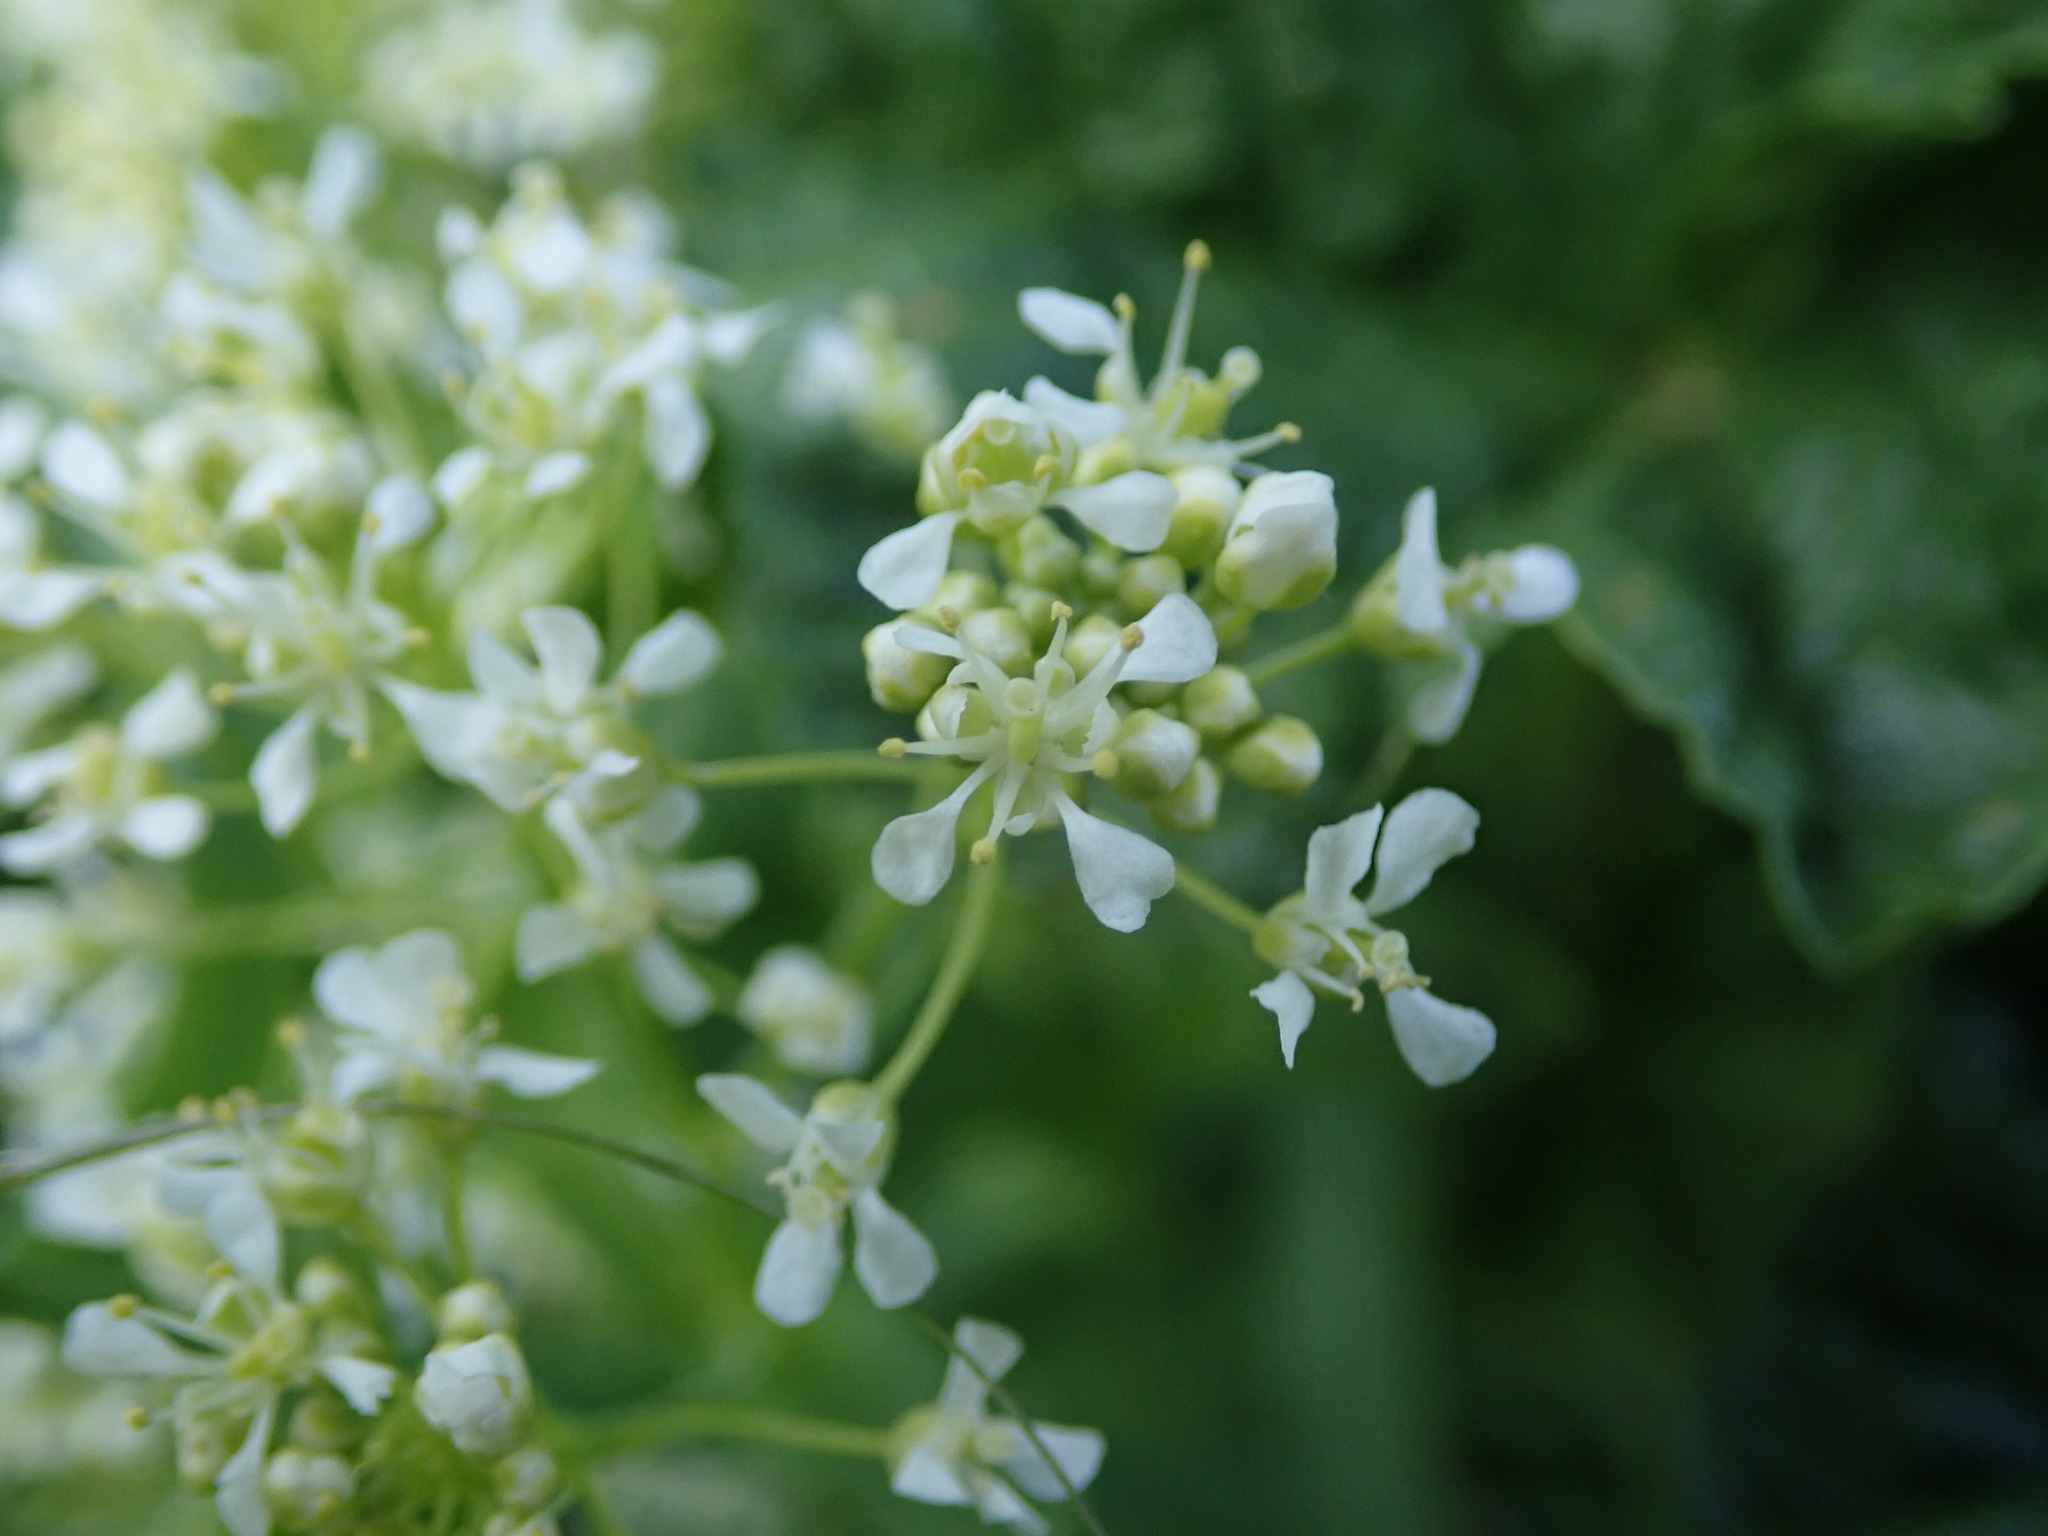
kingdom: Plantae
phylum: Tracheophyta
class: Magnoliopsida
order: Brassicales
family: Brassicaceae
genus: Lepidium
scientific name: Lepidium draba
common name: Hoary cress
